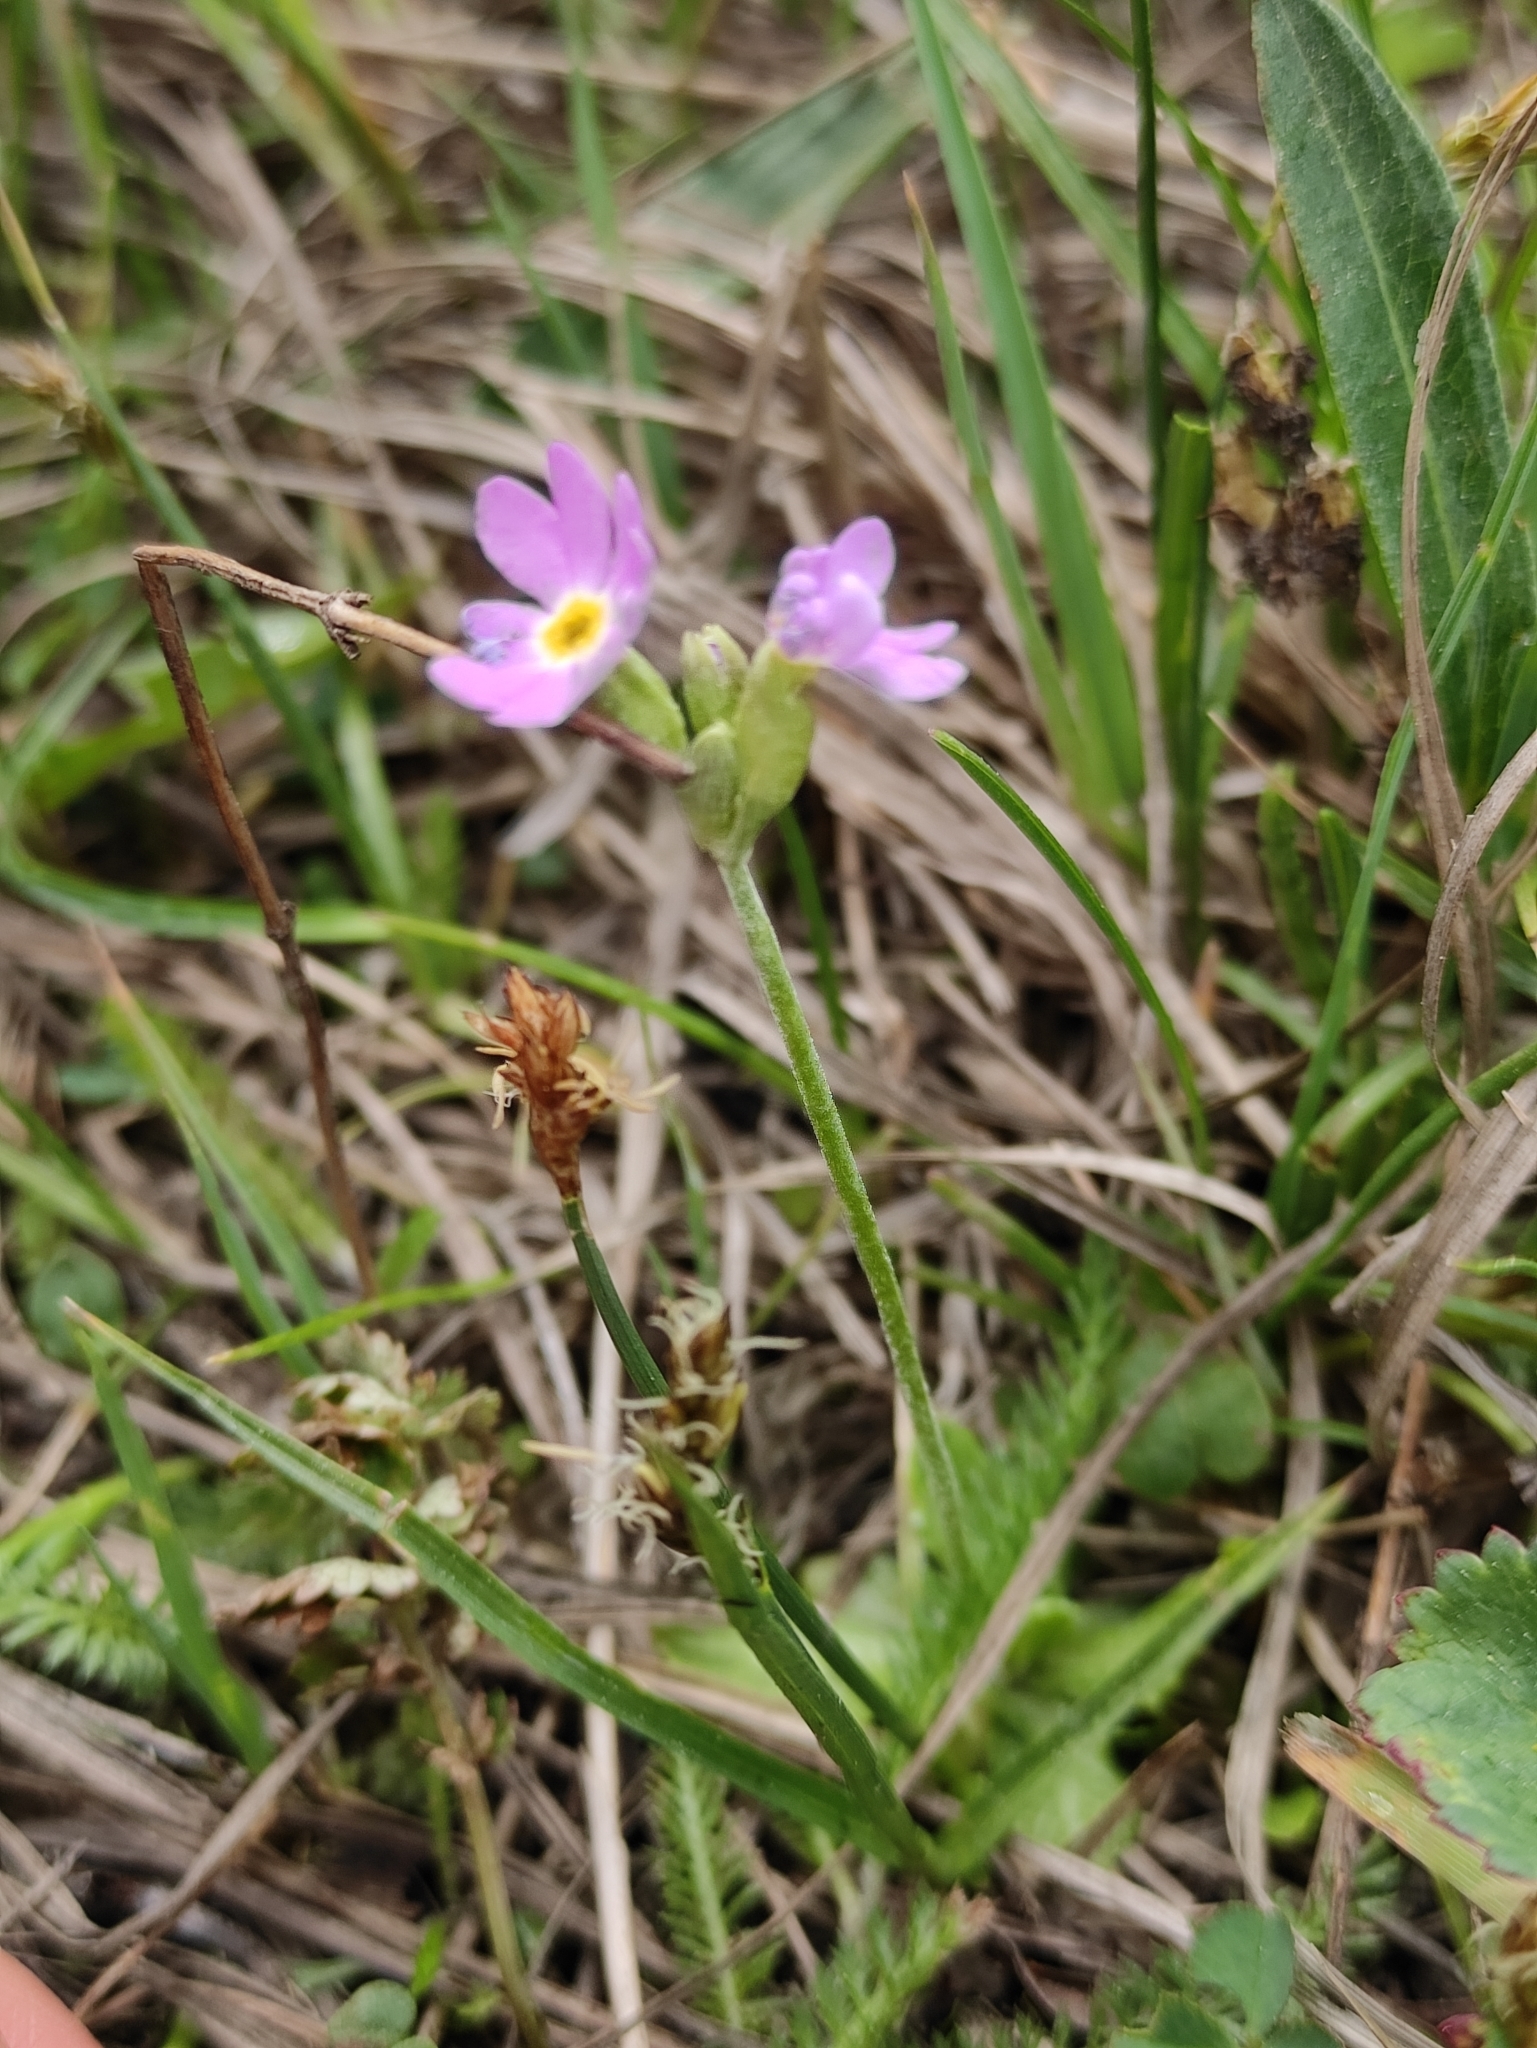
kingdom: Plantae
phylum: Tracheophyta
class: Magnoliopsida
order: Ericales
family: Primulaceae
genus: Primula
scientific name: Primula farinosa
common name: Bird's-eye primrose
